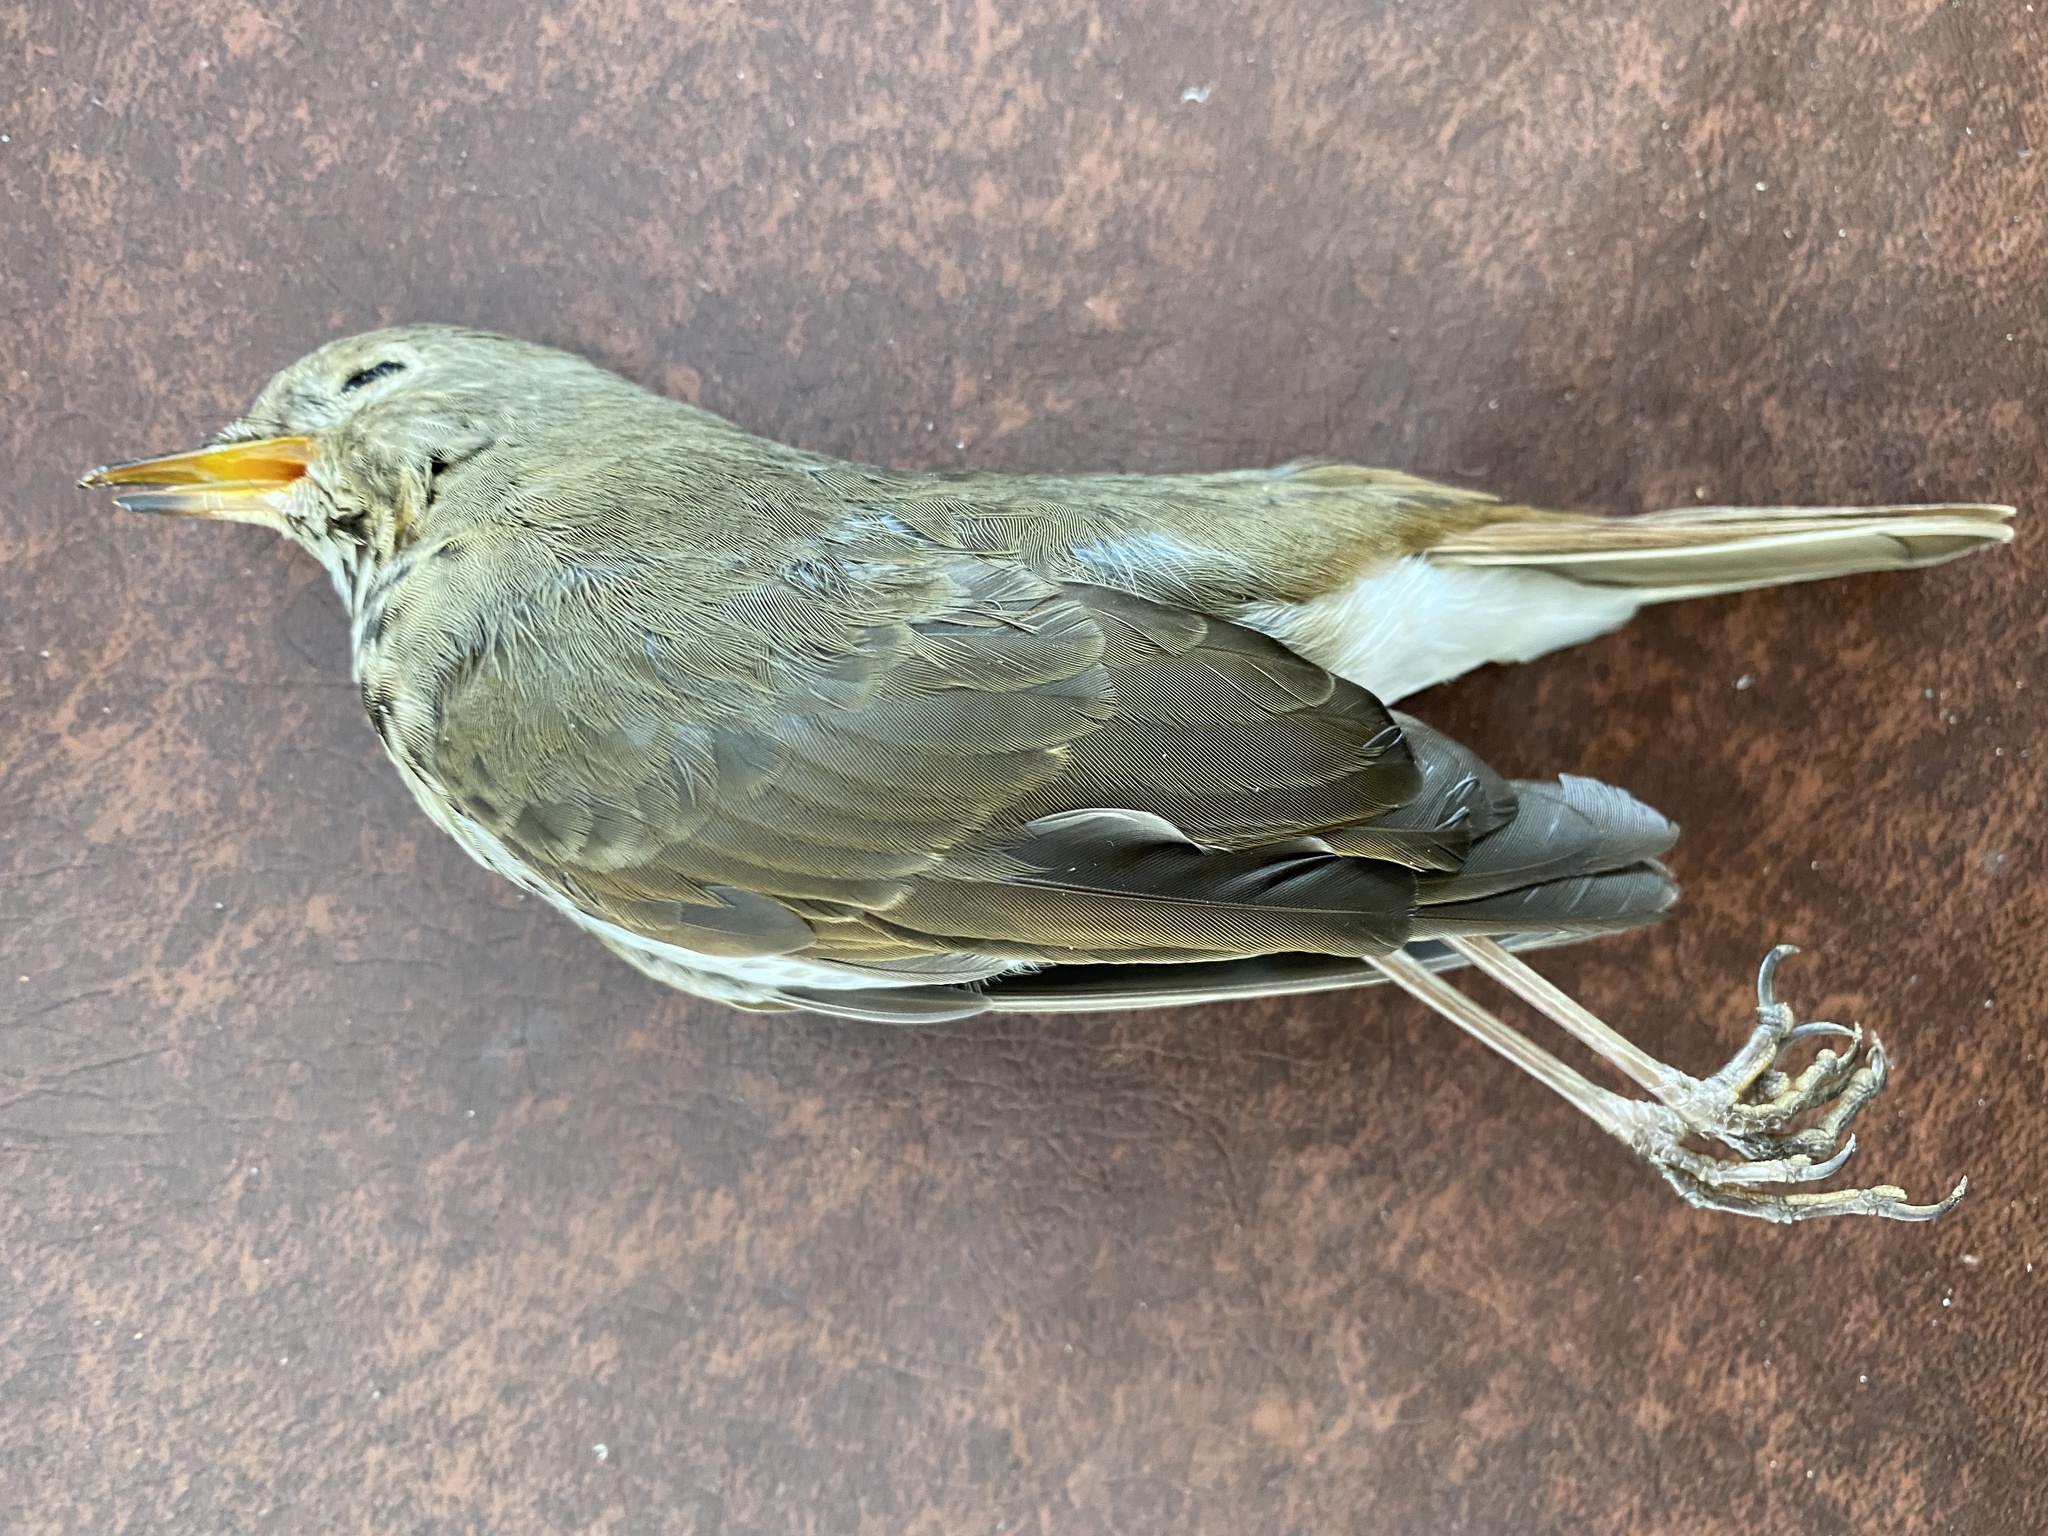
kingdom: Animalia
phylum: Chordata
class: Aves
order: Passeriformes
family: Turdidae
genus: Catharus
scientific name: Catharus guttatus
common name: Hermit thrush
